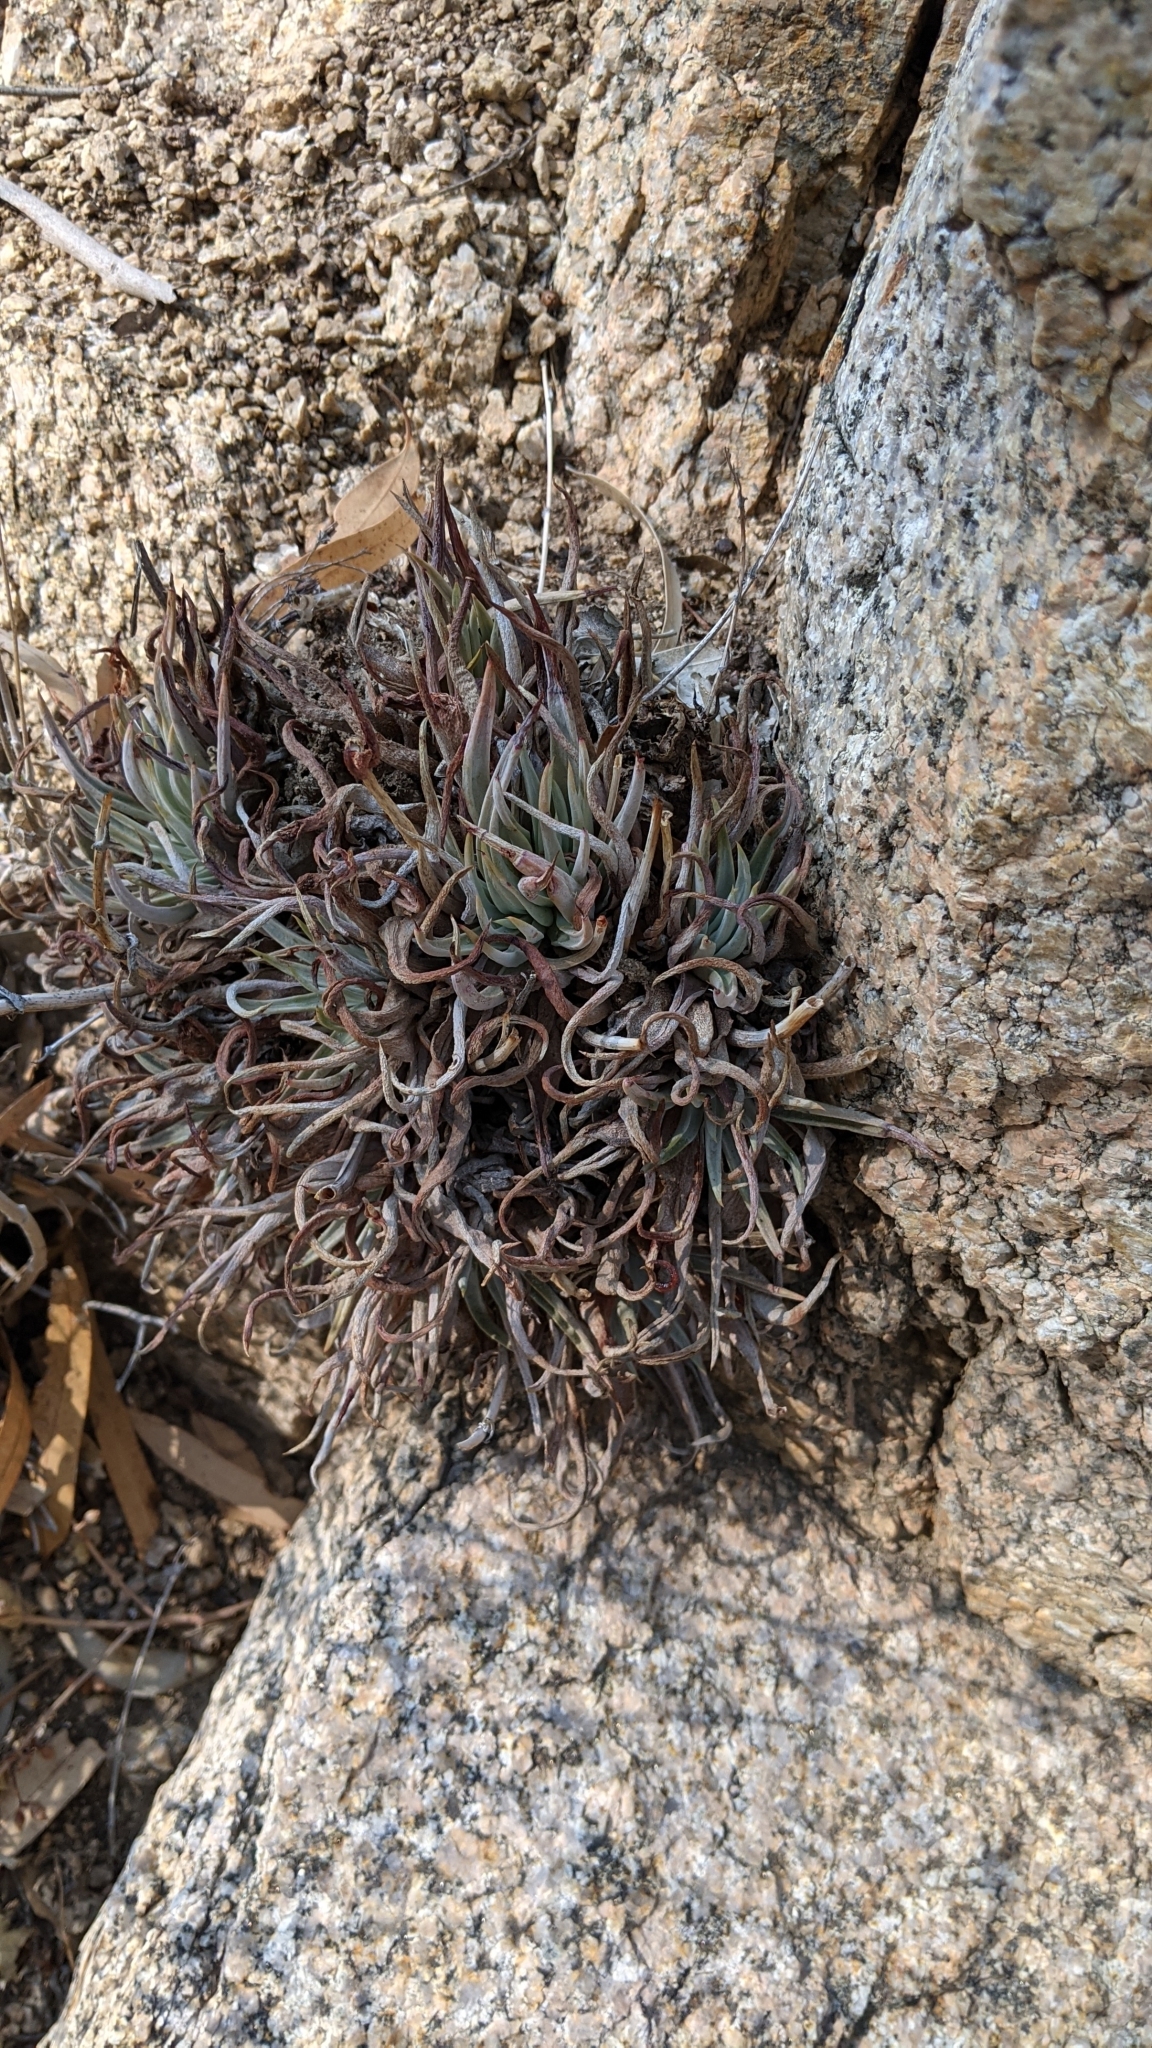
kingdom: Plantae
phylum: Tracheophyta
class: Magnoliopsida
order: Saxifragales
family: Crassulaceae
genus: Dudleya
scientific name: Dudleya saxosa
